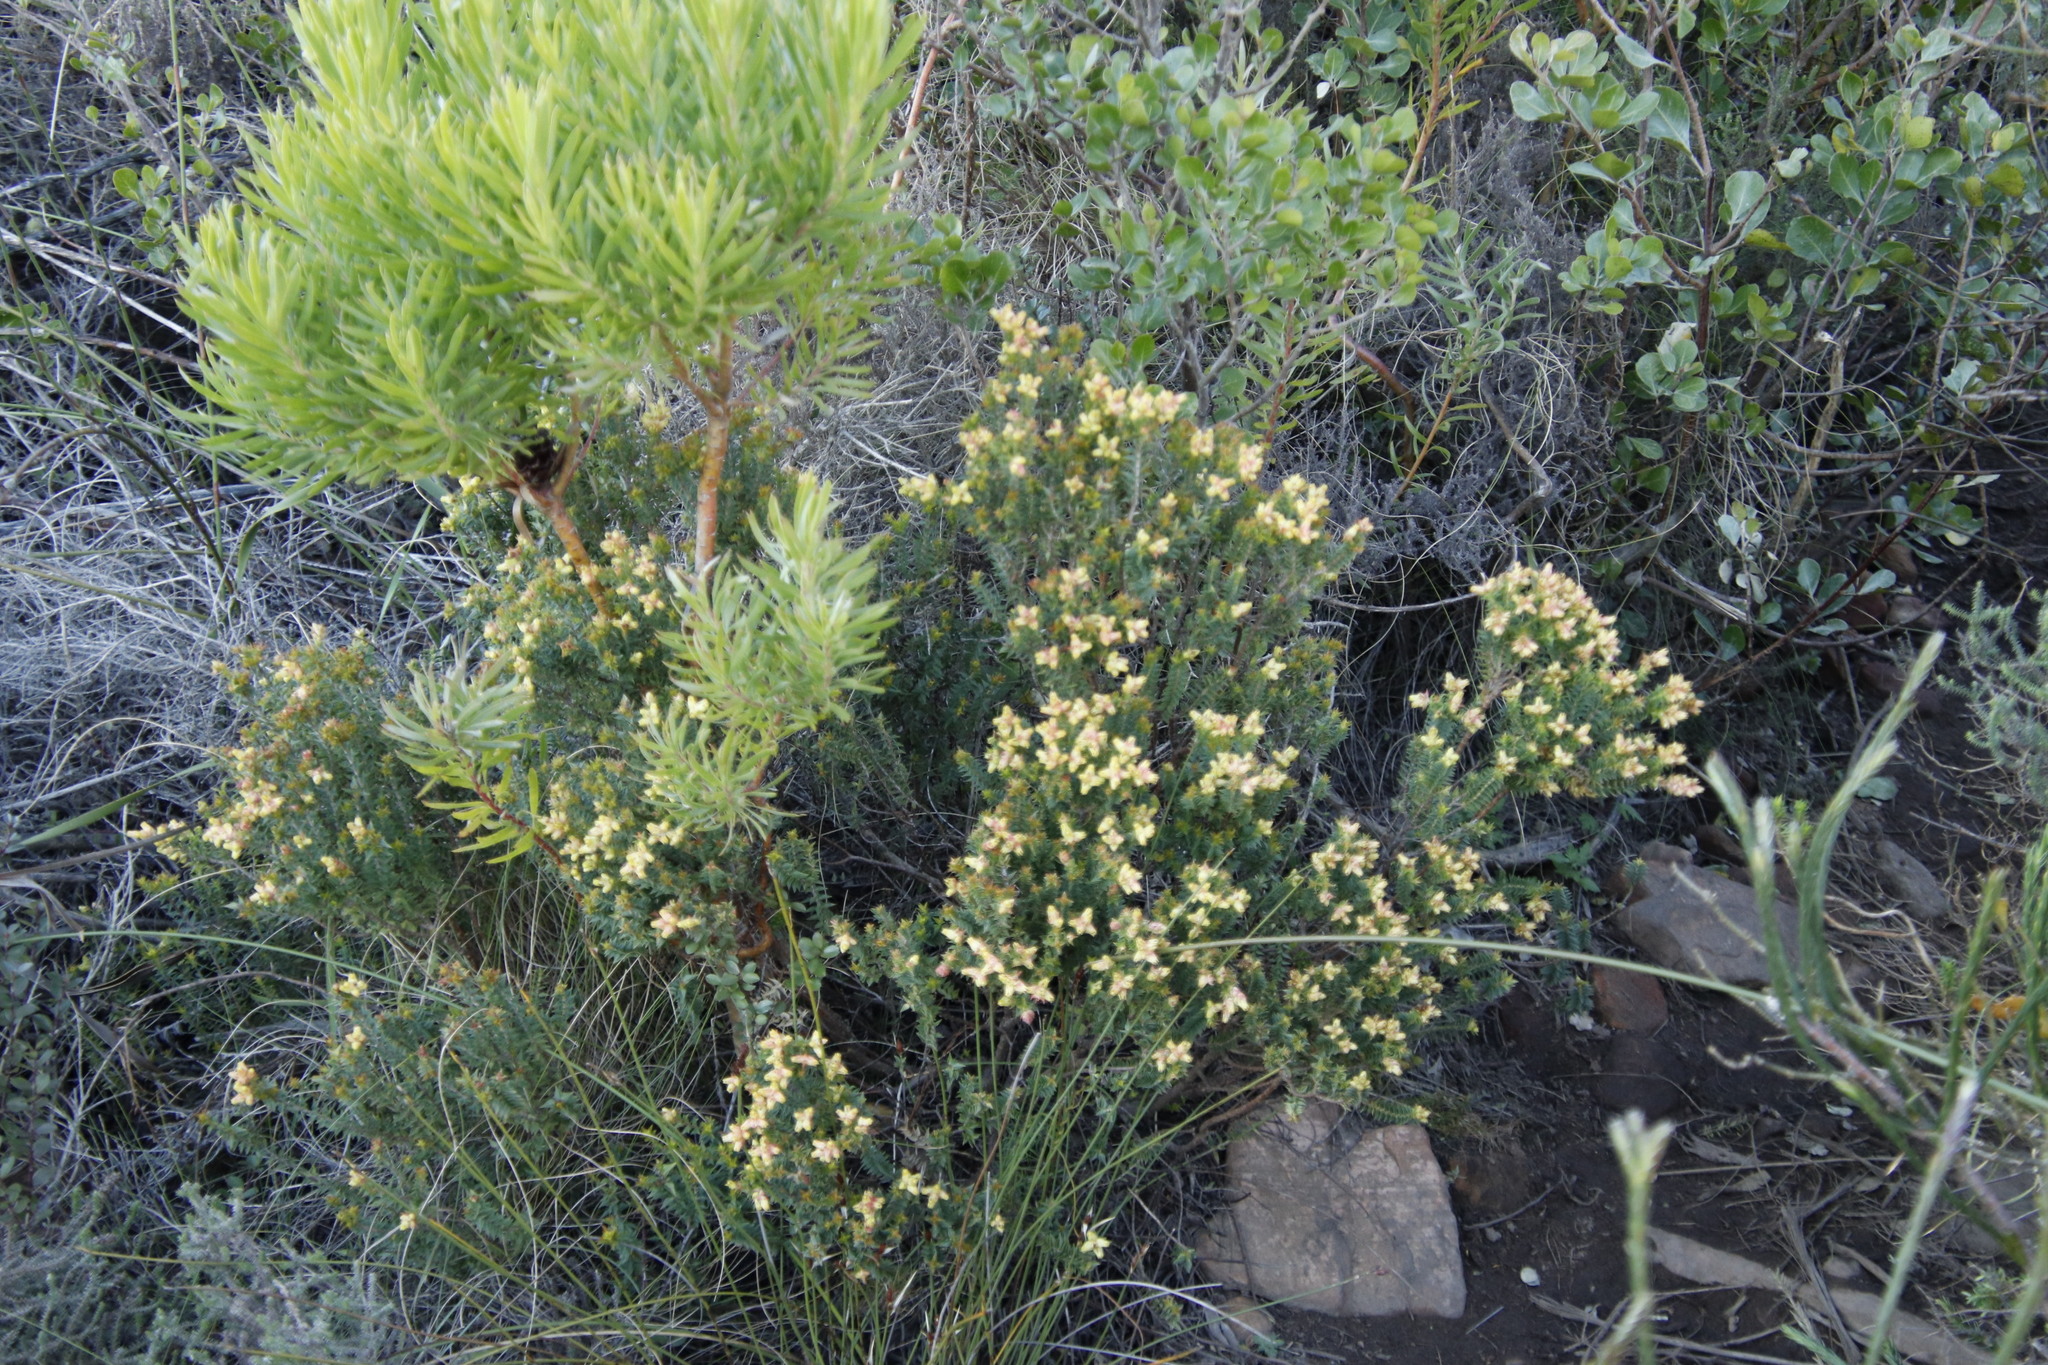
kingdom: Plantae
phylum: Tracheophyta
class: Magnoliopsida
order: Myrtales
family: Penaeaceae
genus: Penaea
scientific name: Penaea mucronata
